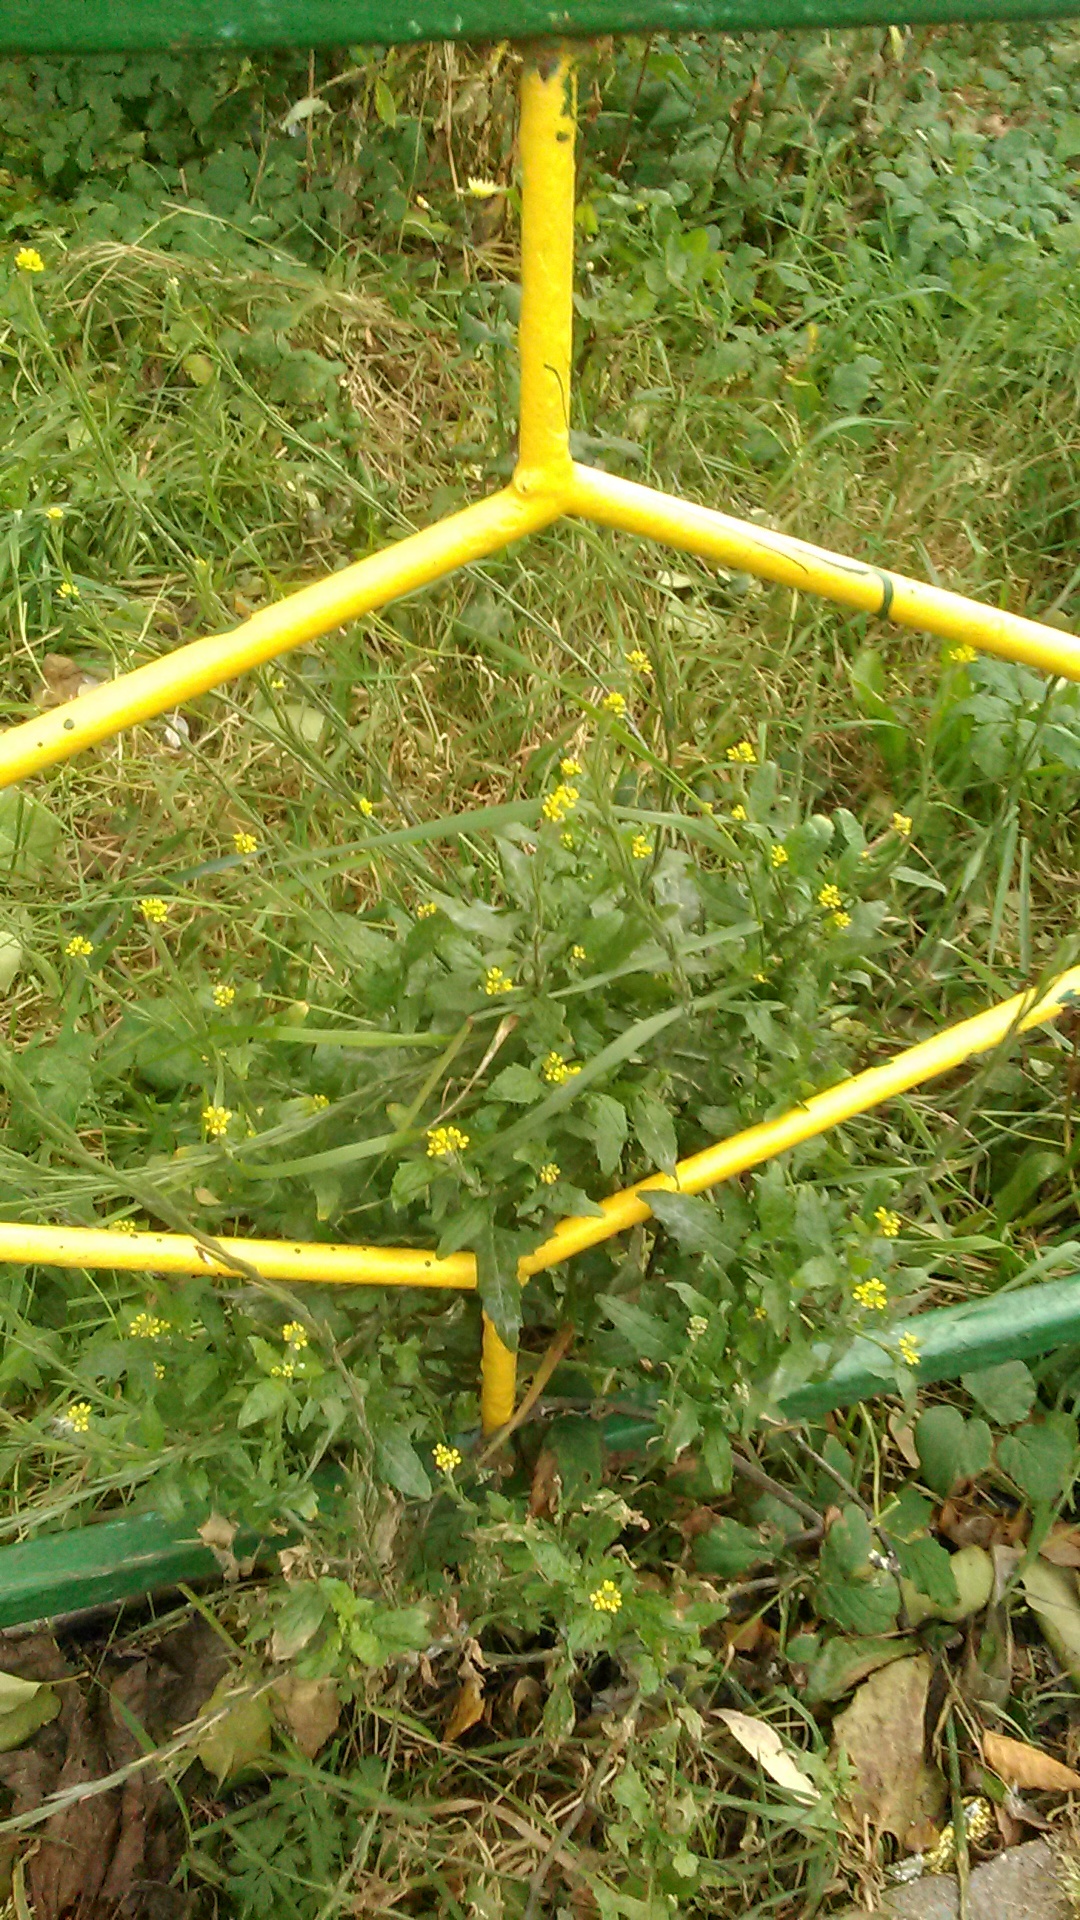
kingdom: Plantae
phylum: Tracheophyta
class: Magnoliopsida
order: Brassicales
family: Brassicaceae
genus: Sisymbrium
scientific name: Sisymbrium officinale
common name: Hedge mustard
